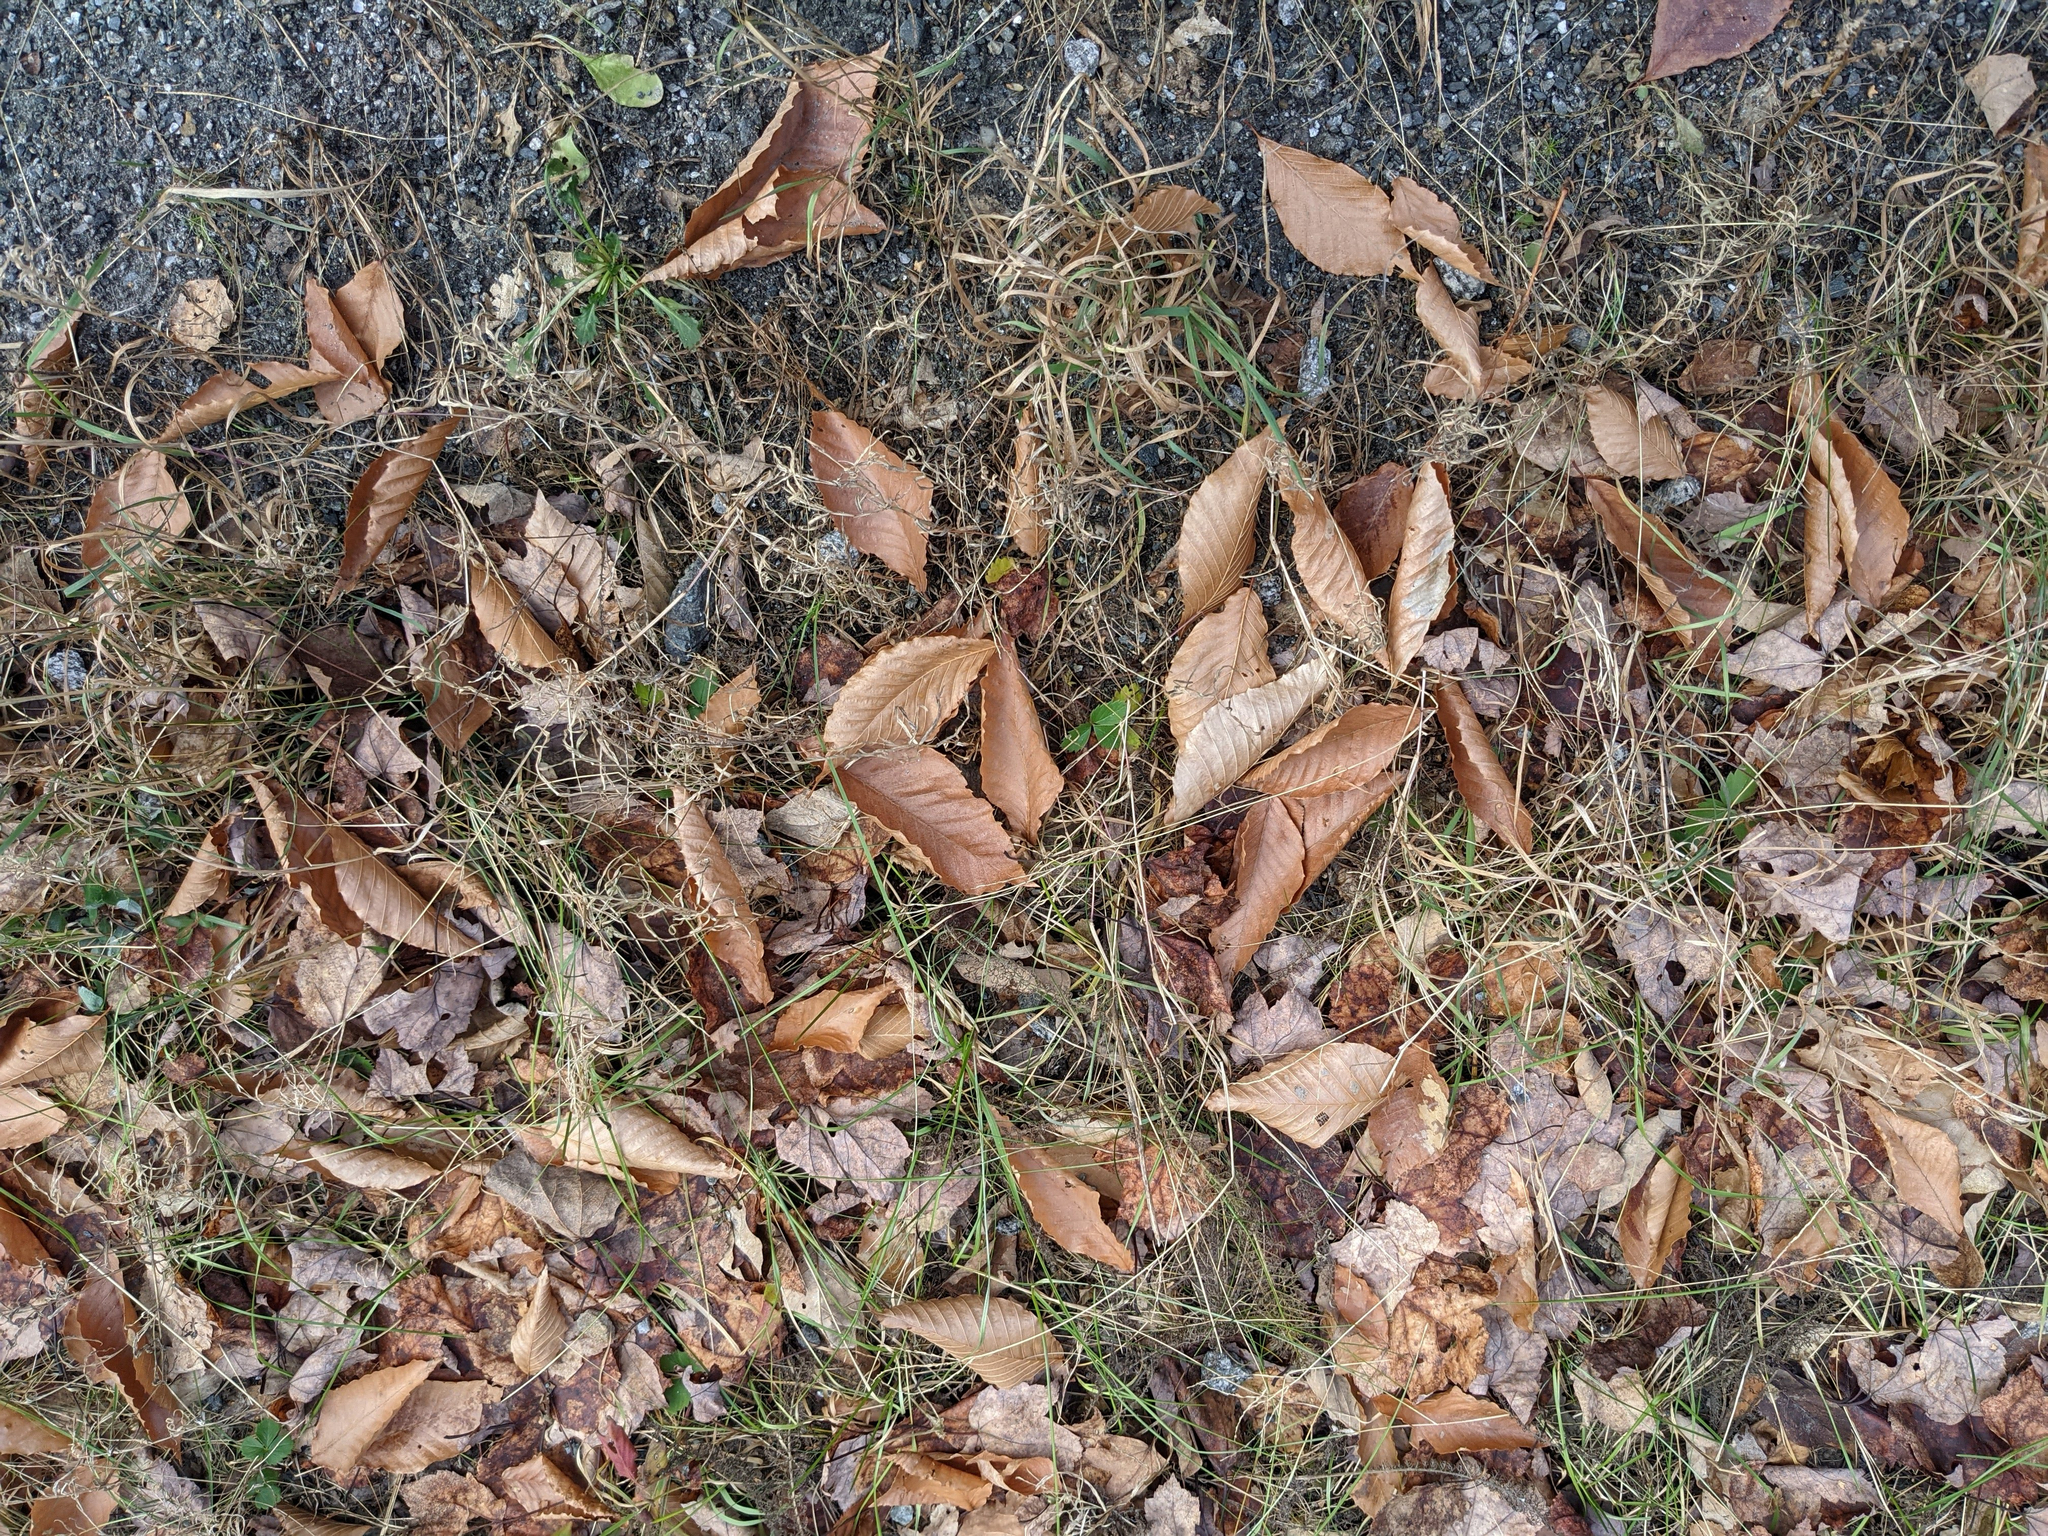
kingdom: Plantae
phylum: Tracheophyta
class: Magnoliopsida
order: Fagales
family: Fagaceae
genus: Fagus
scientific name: Fagus grandifolia
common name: American beech
